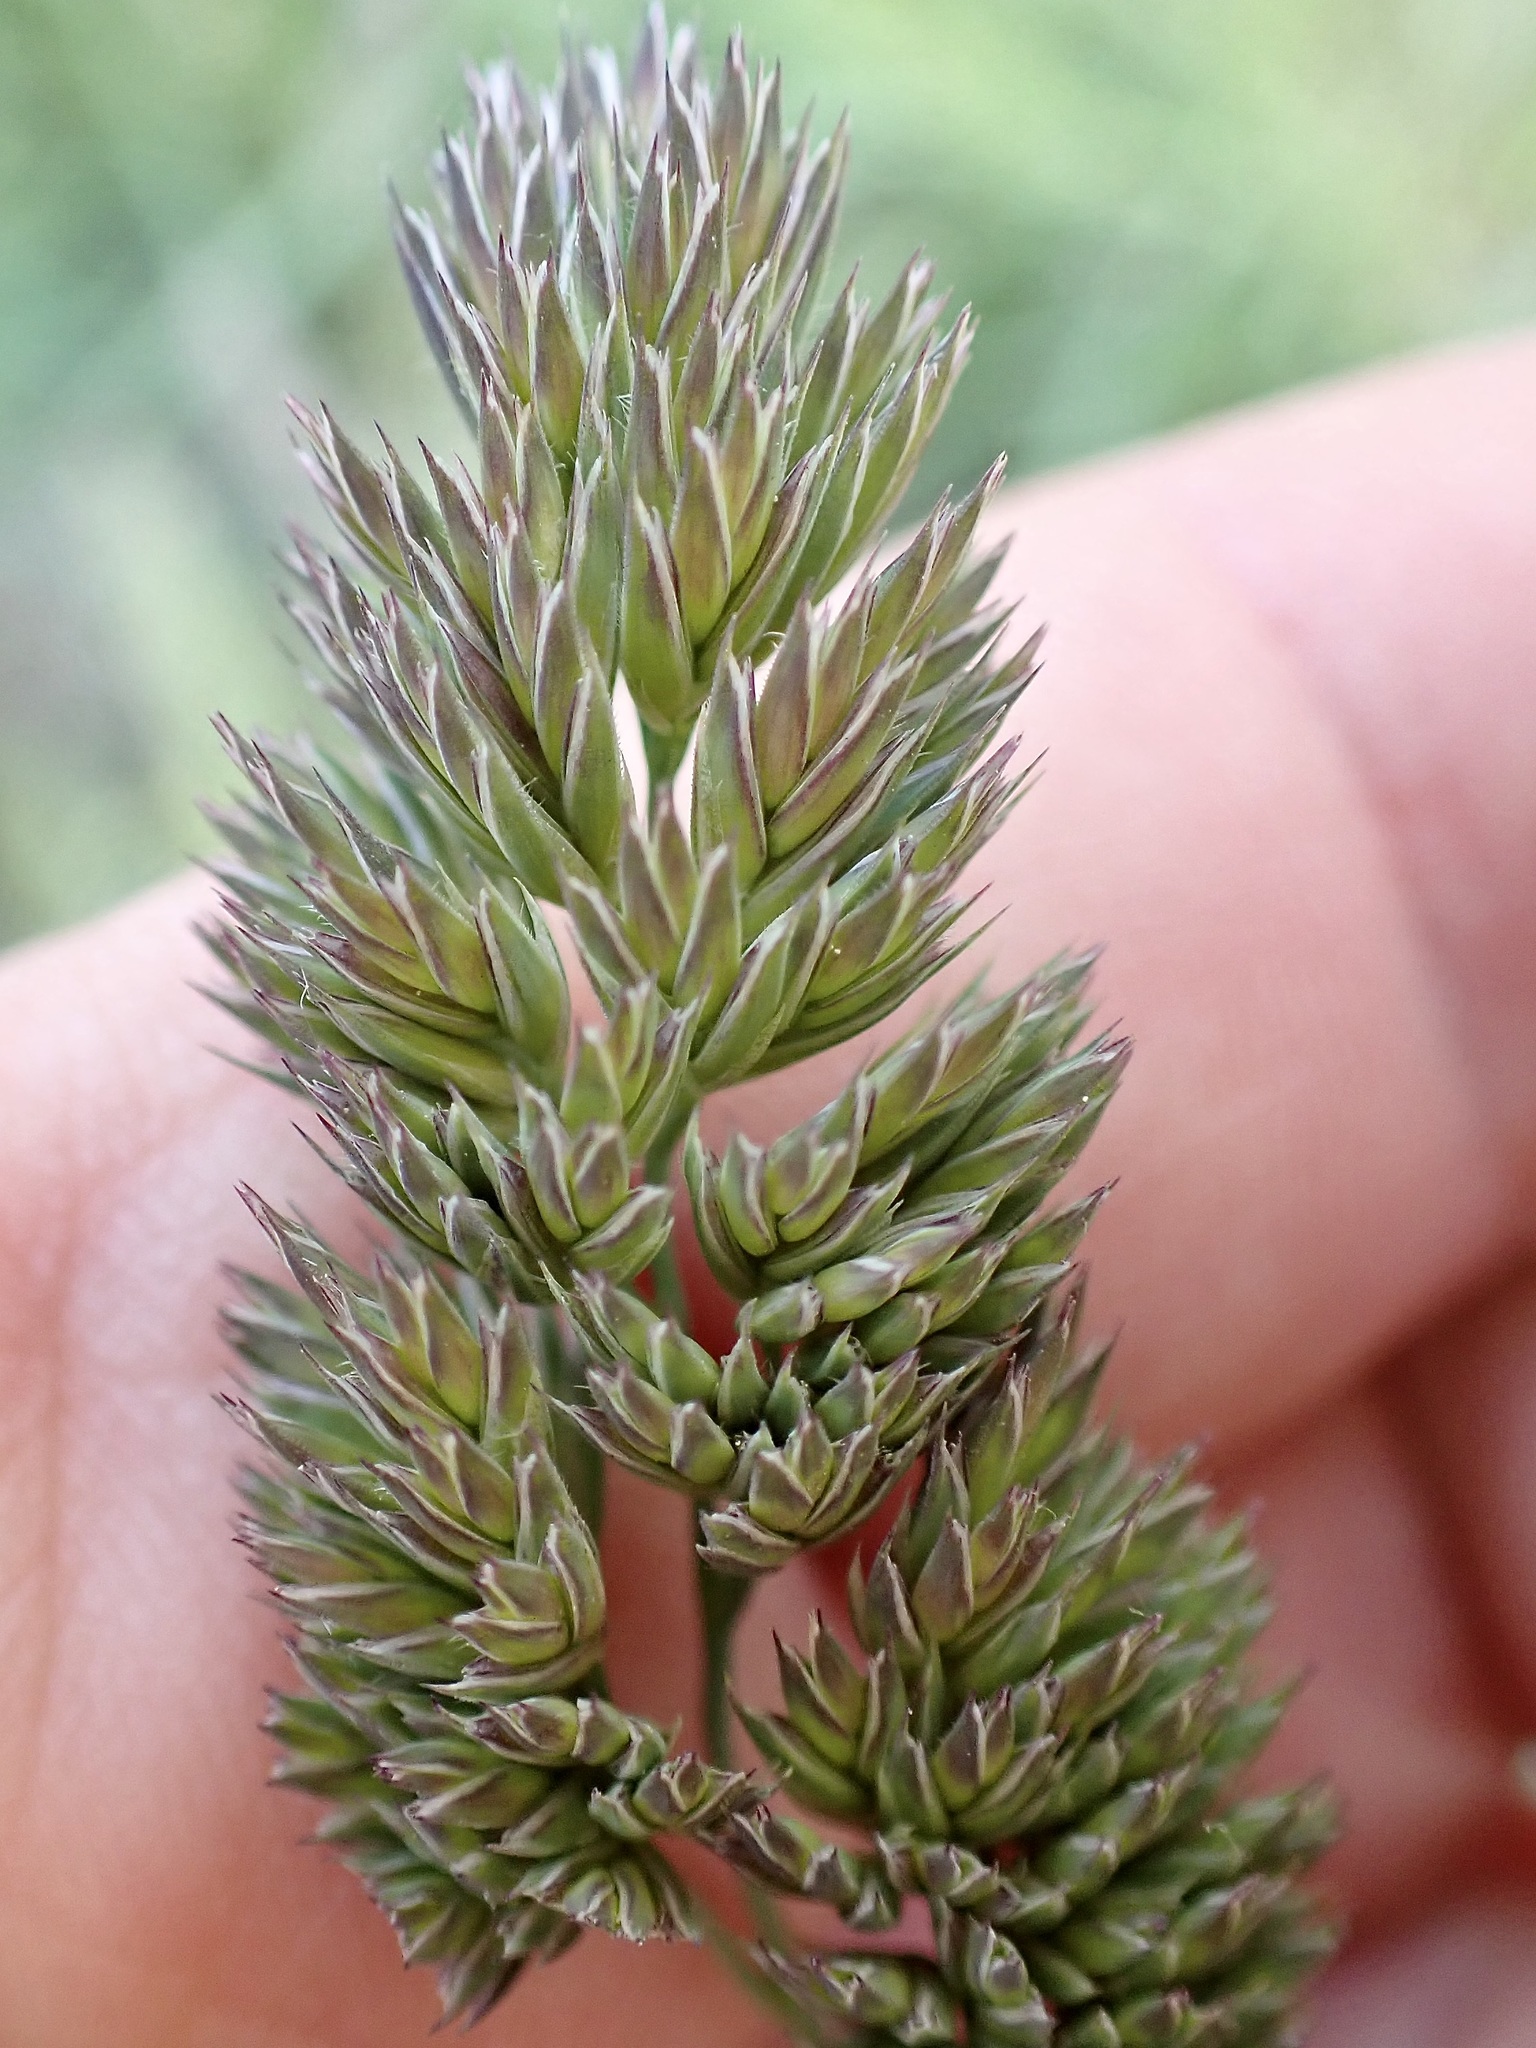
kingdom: Plantae
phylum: Tracheophyta
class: Liliopsida
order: Poales
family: Poaceae
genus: Dactylis
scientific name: Dactylis glomerata
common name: Orchardgrass
